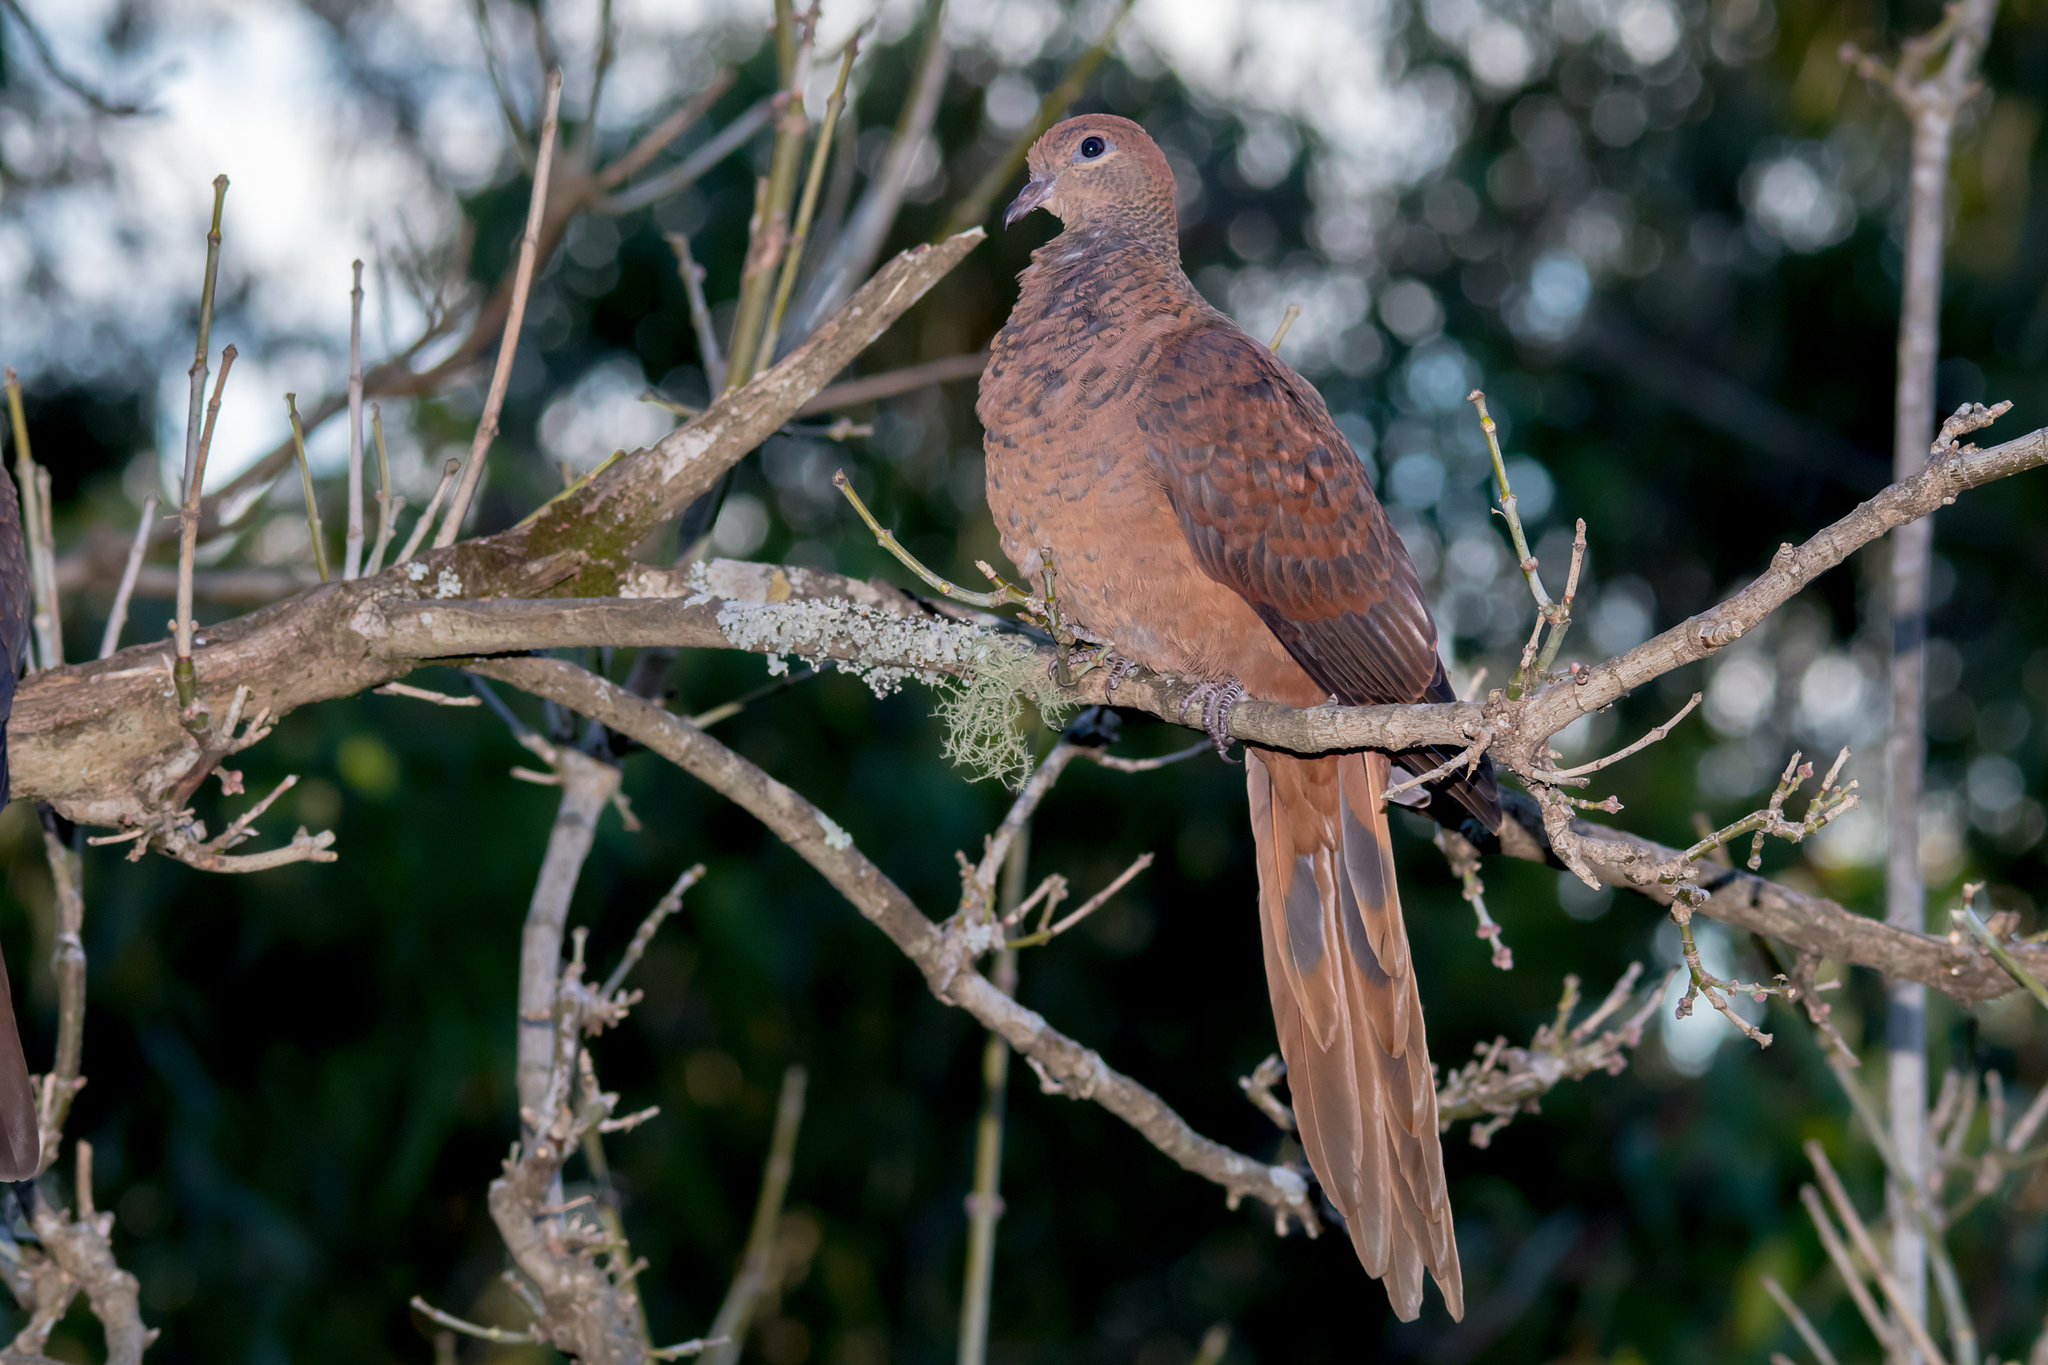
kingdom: Animalia
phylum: Chordata
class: Aves
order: Columbiformes
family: Columbidae
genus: Macropygia
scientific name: Macropygia phasianella
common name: Brown cuckoo-dove
